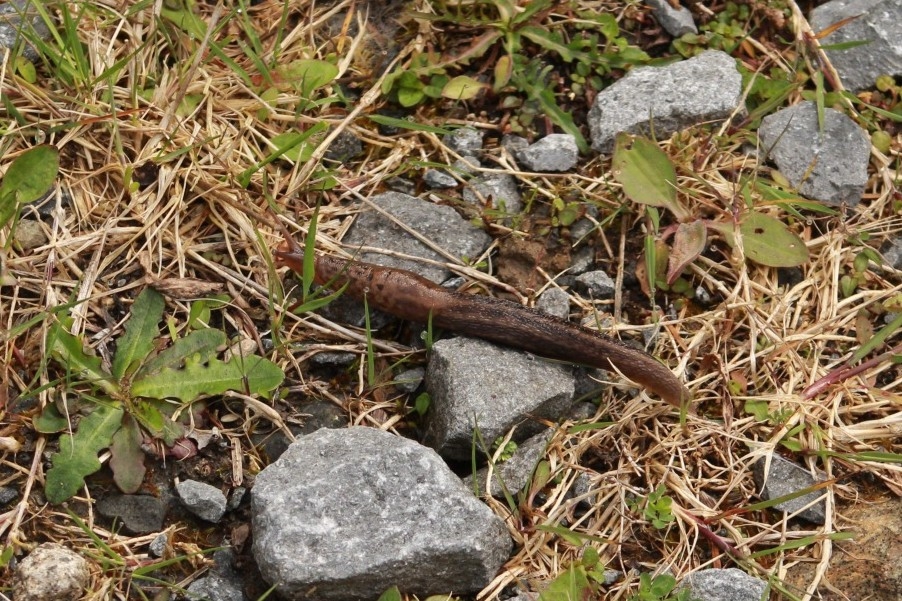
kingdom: Animalia
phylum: Mollusca
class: Gastropoda
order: Stylommatophora
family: Limacidae
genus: Limax
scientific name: Limax maximus
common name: Great grey slug
